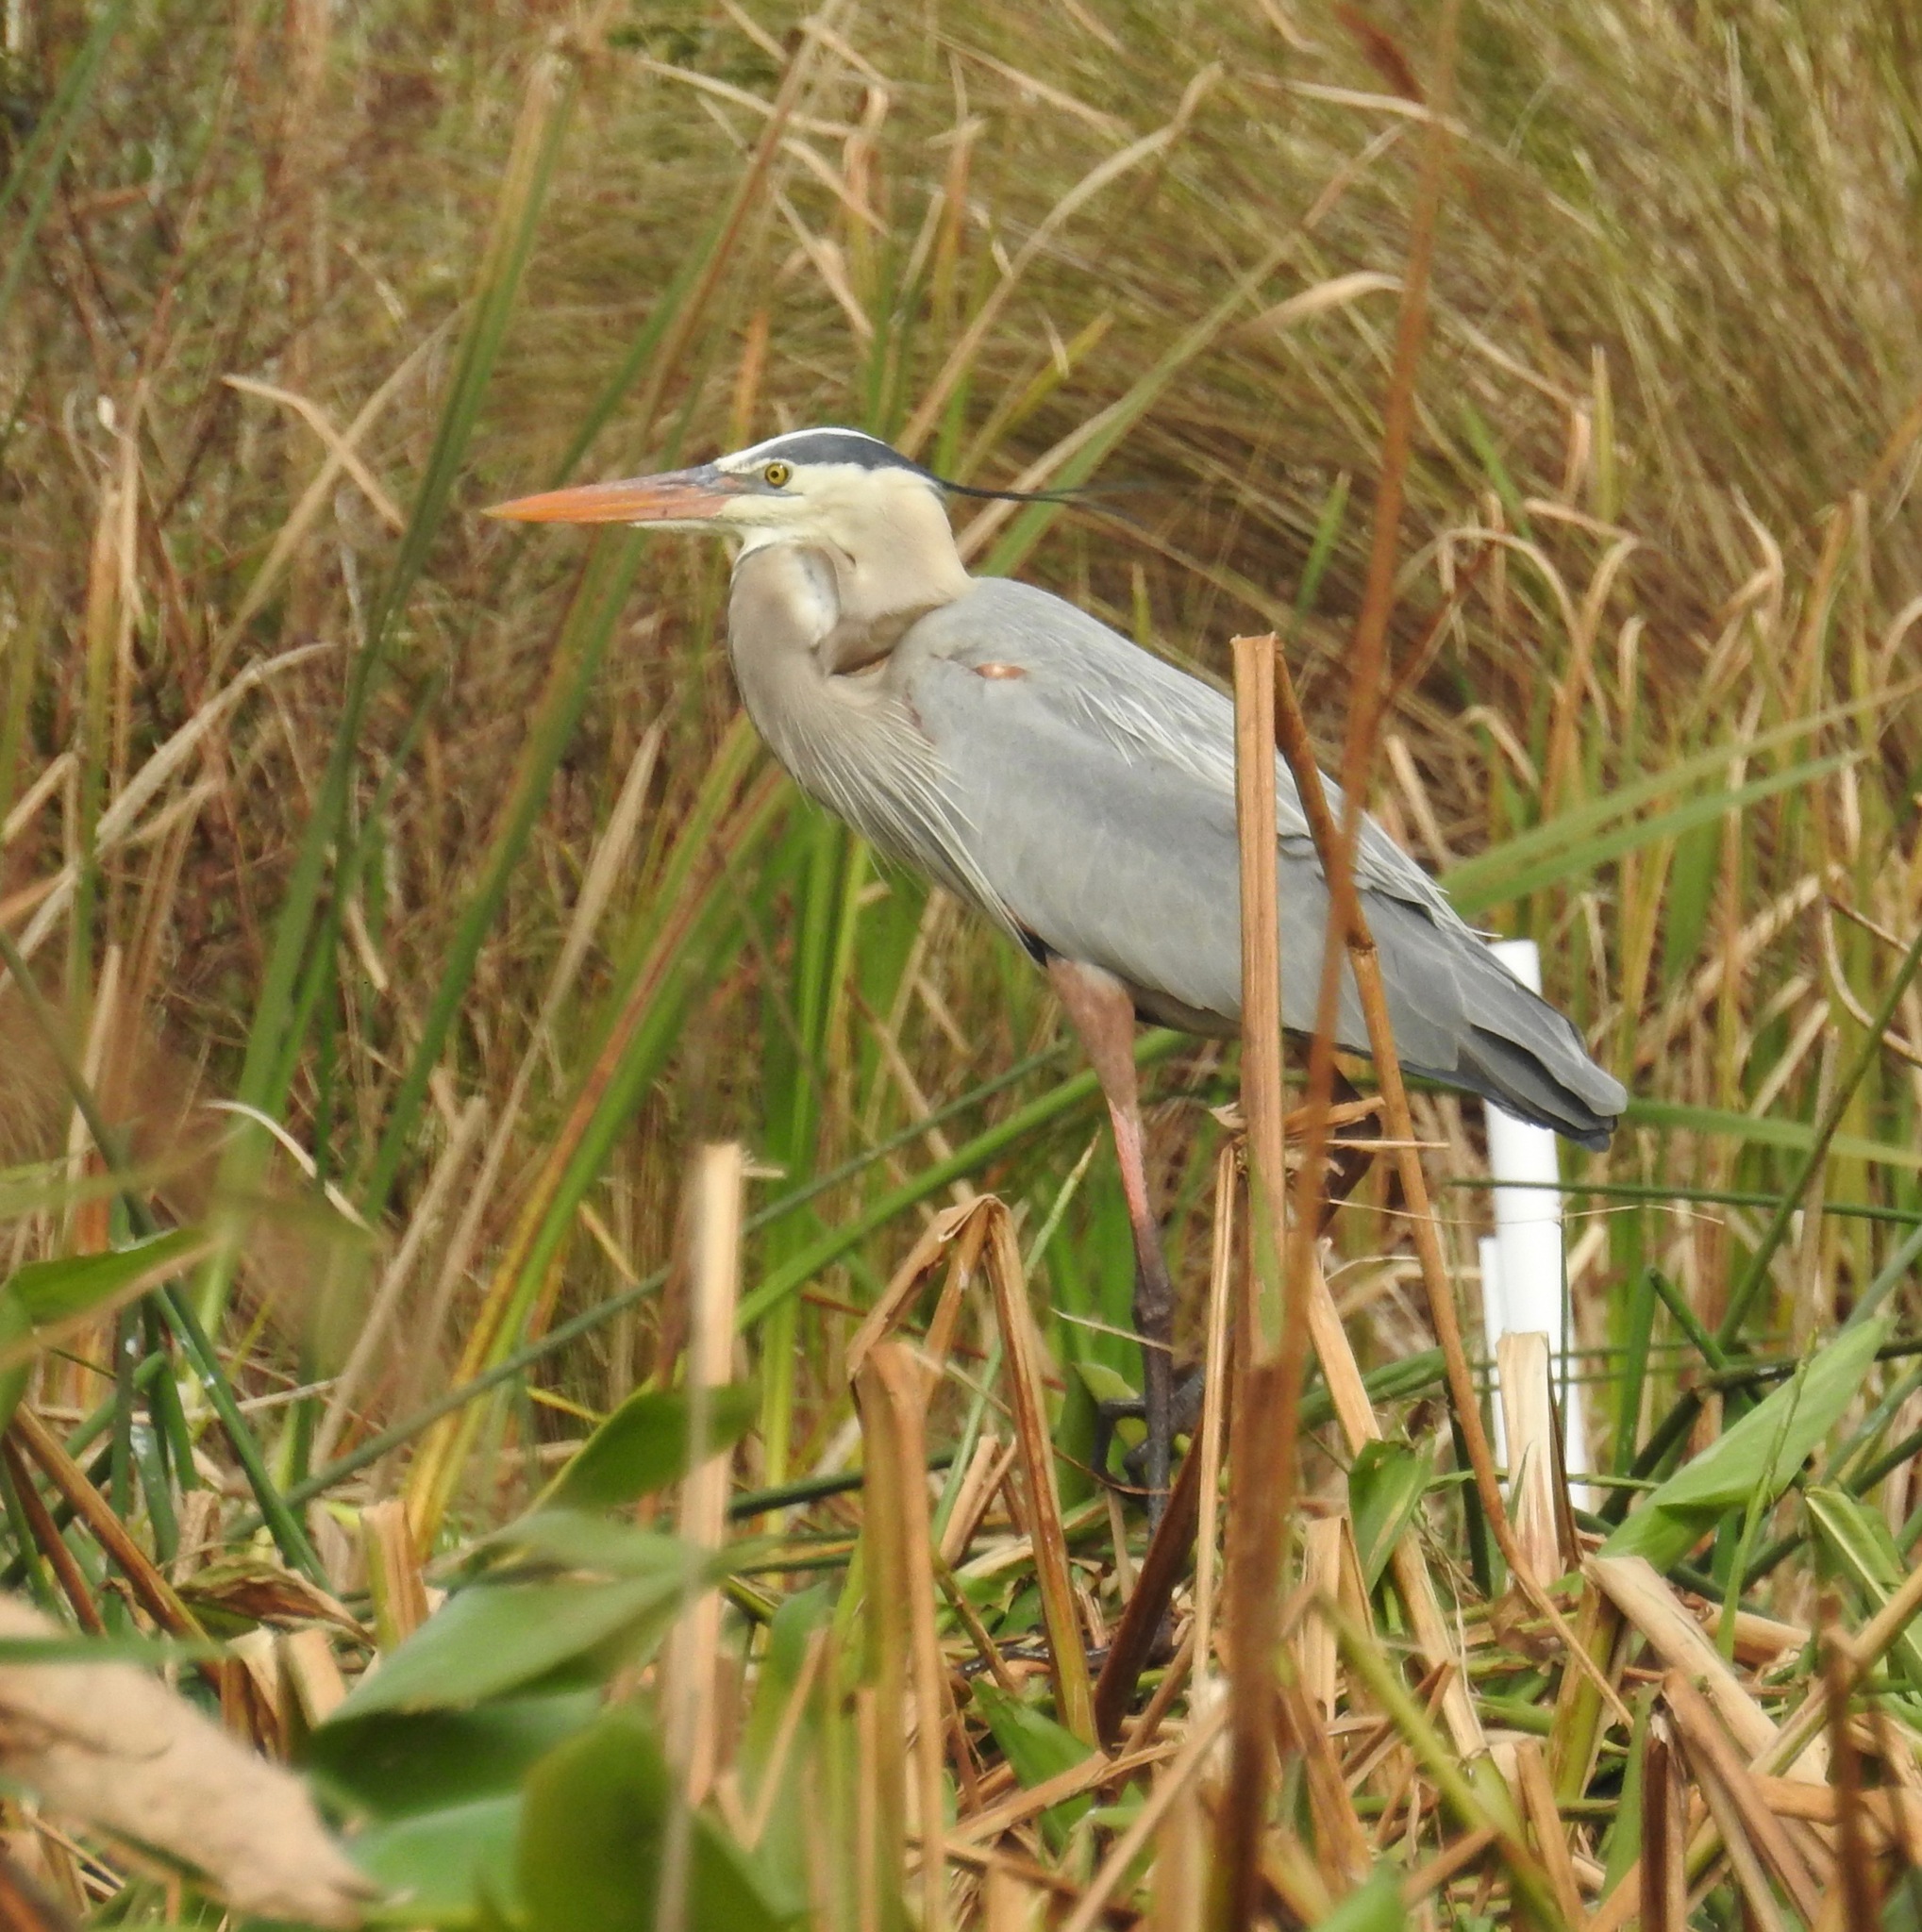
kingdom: Animalia
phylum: Chordata
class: Aves
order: Pelecaniformes
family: Ardeidae
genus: Ardea
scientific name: Ardea herodias
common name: Great blue heron
